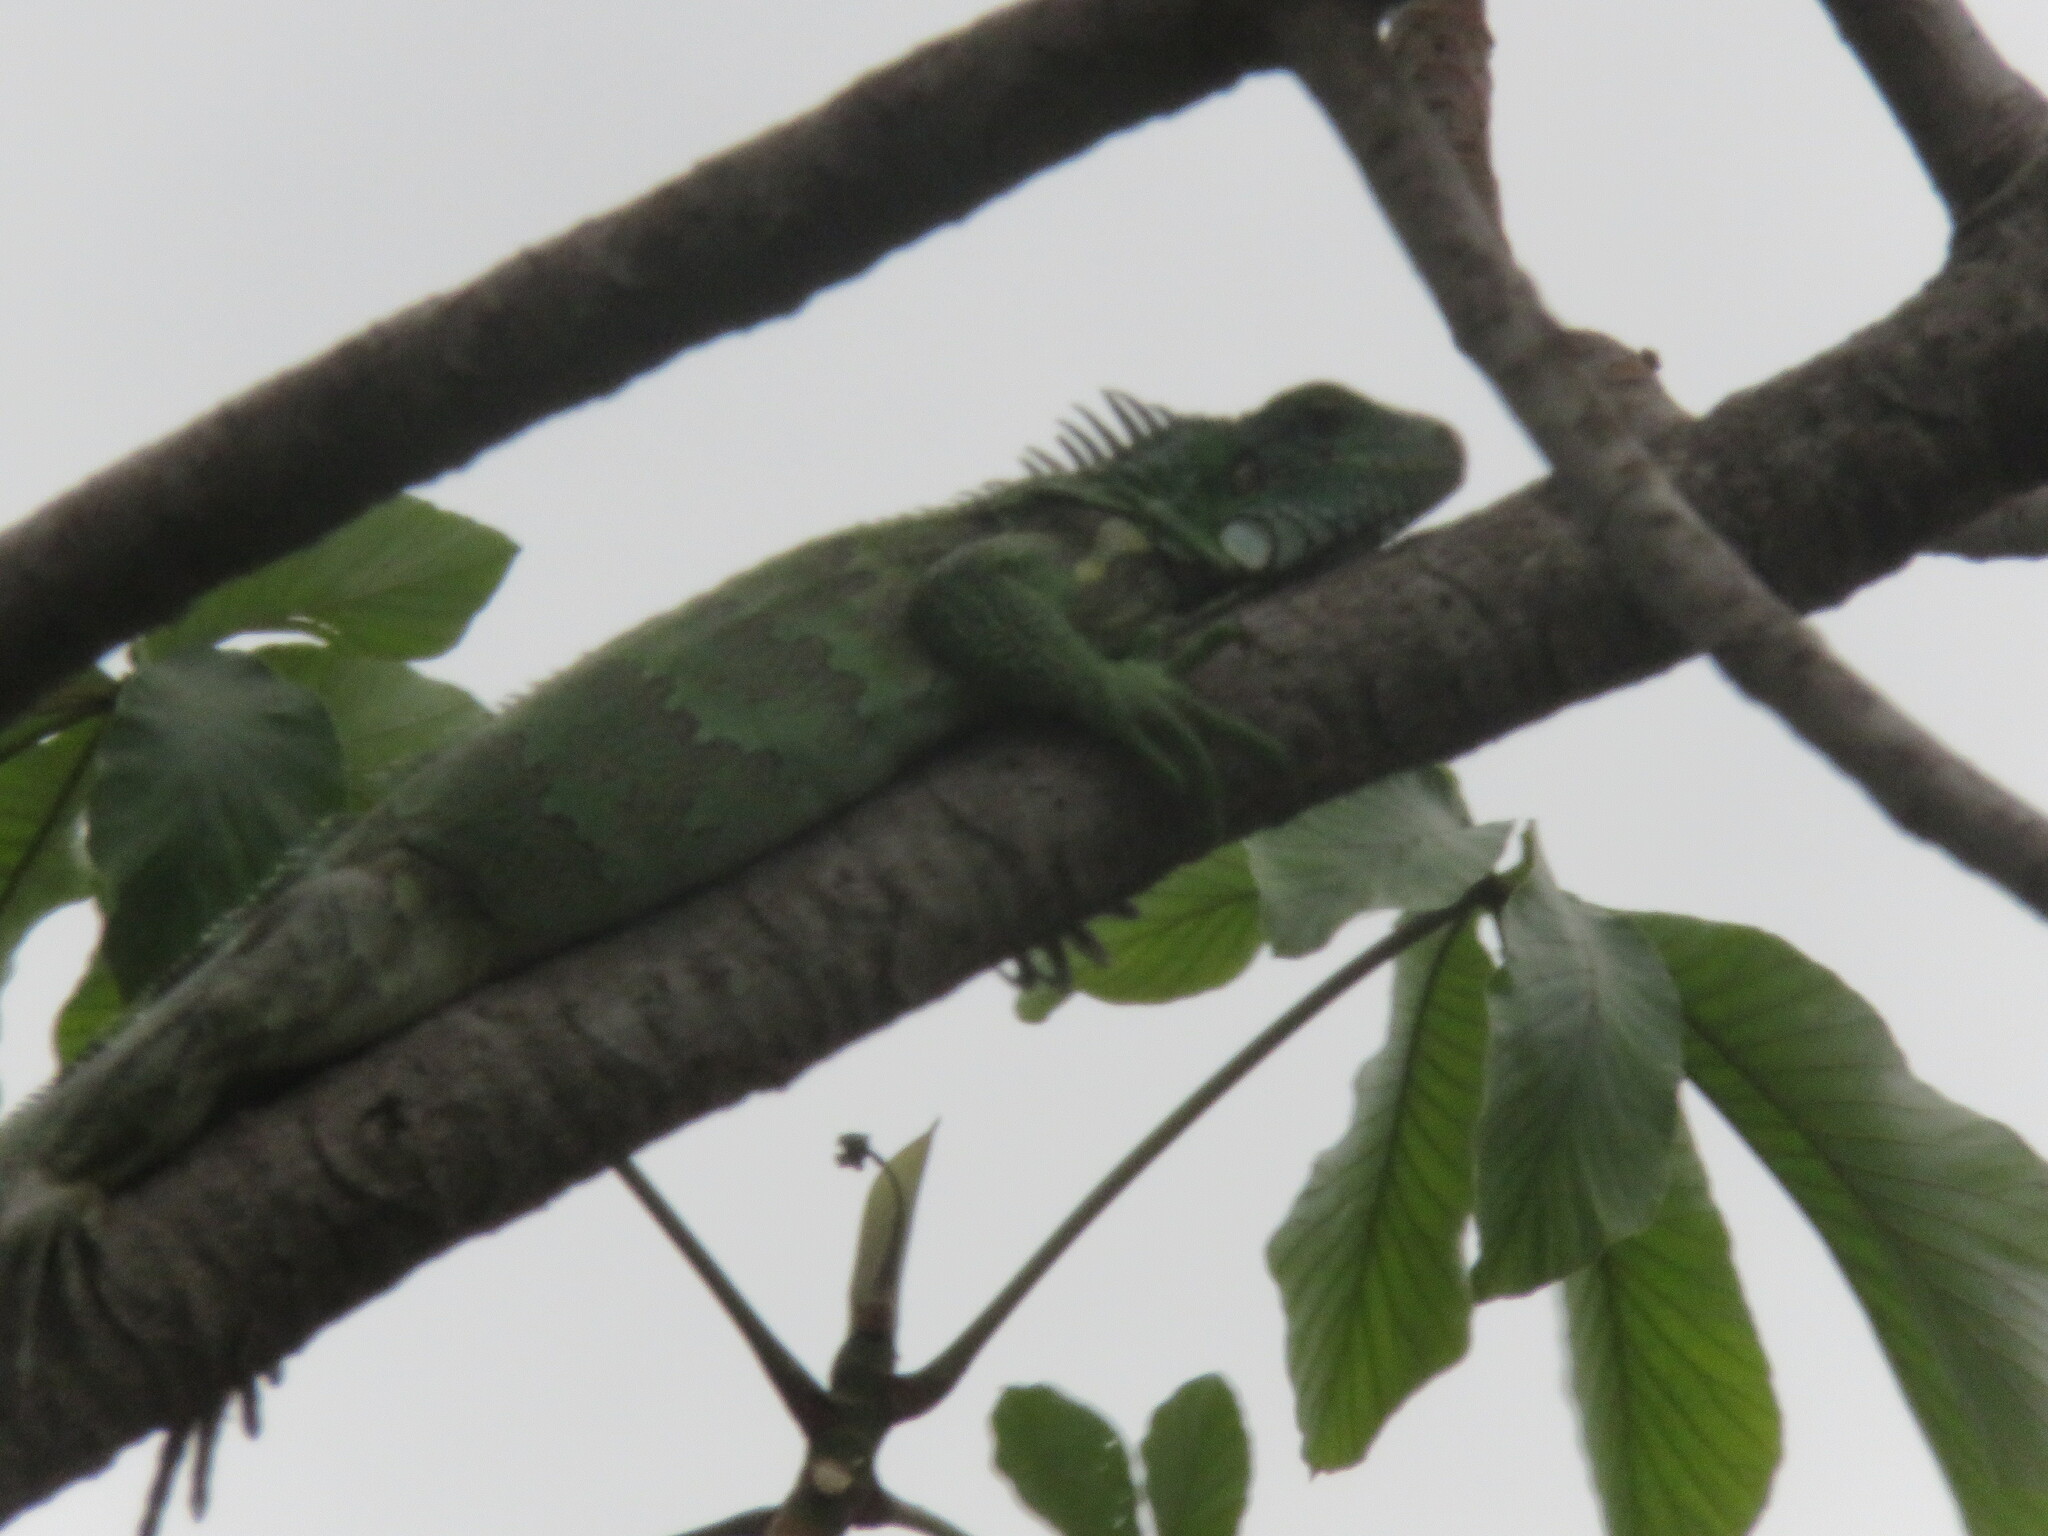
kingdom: Animalia
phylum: Chordata
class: Squamata
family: Iguanidae
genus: Iguana
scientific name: Iguana iguana
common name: Green iguana
